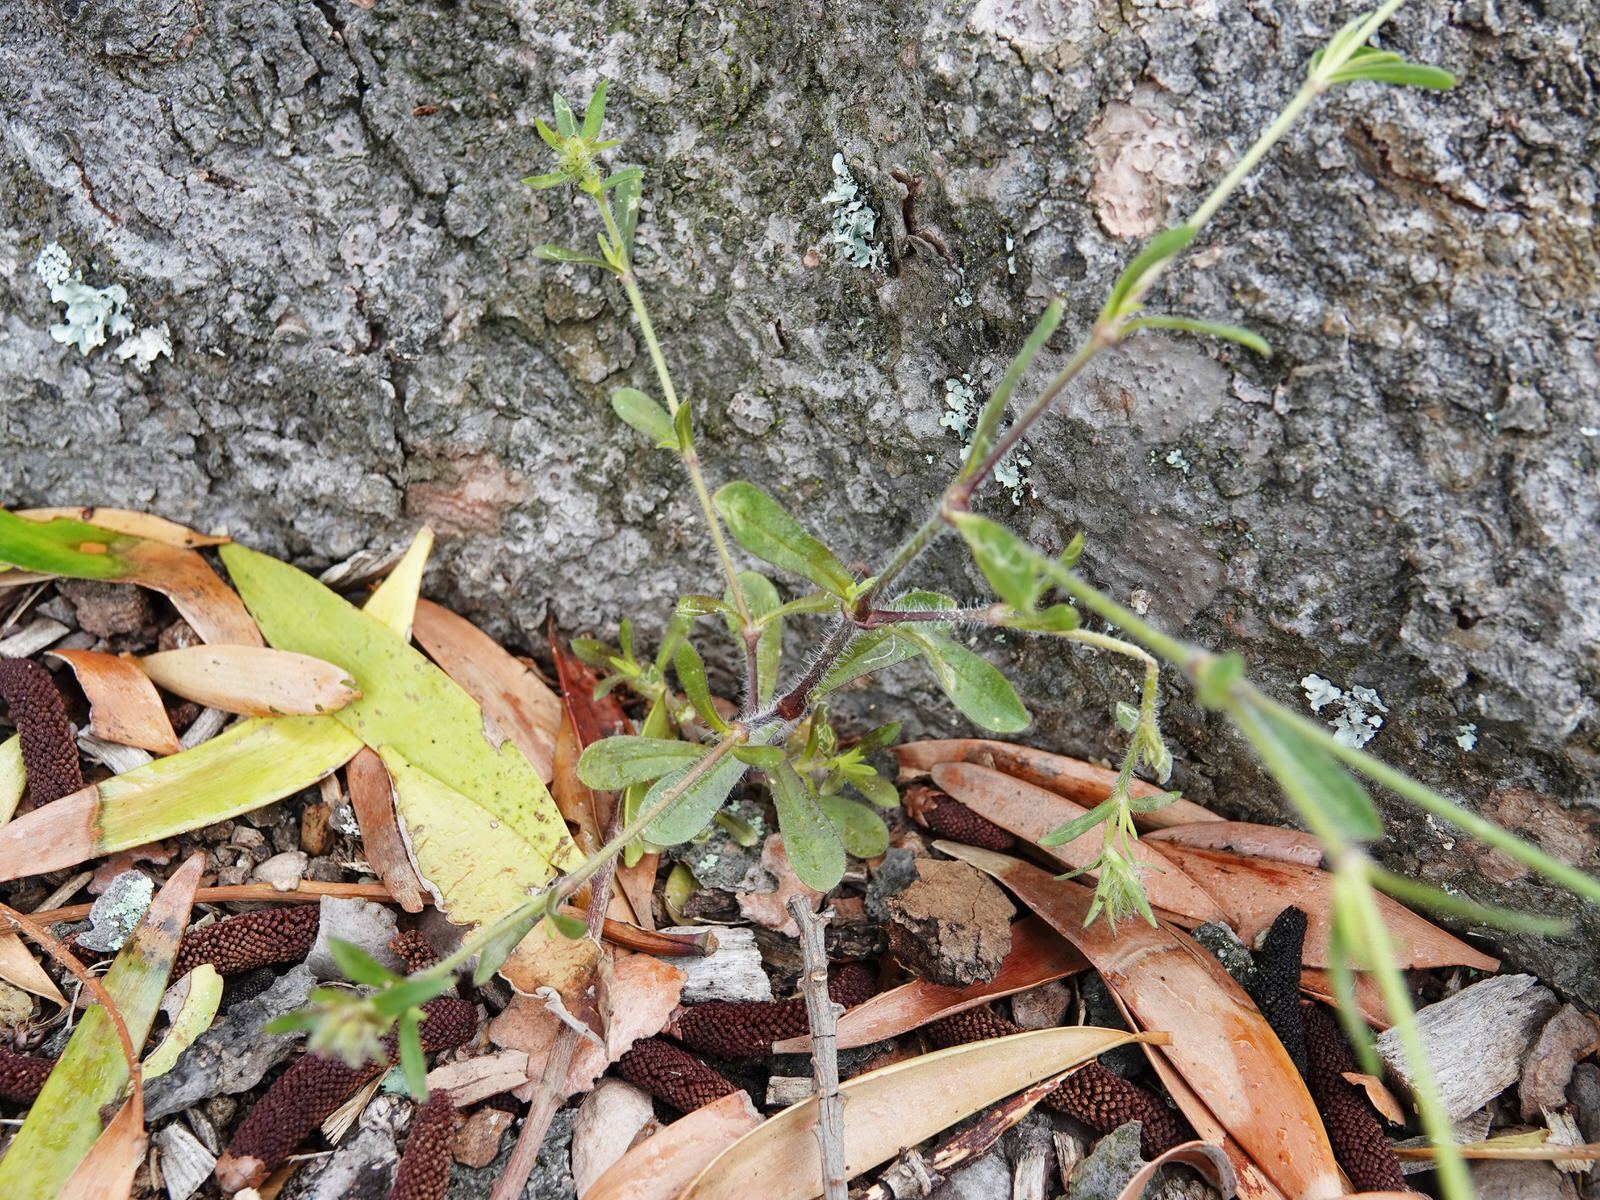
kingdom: Plantae
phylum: Tracheophyta
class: Magnoliopsida
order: Caryophyllales
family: Caryophyllaceae
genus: Silene
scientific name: Silene gallica
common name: Small-flowered catchfly
